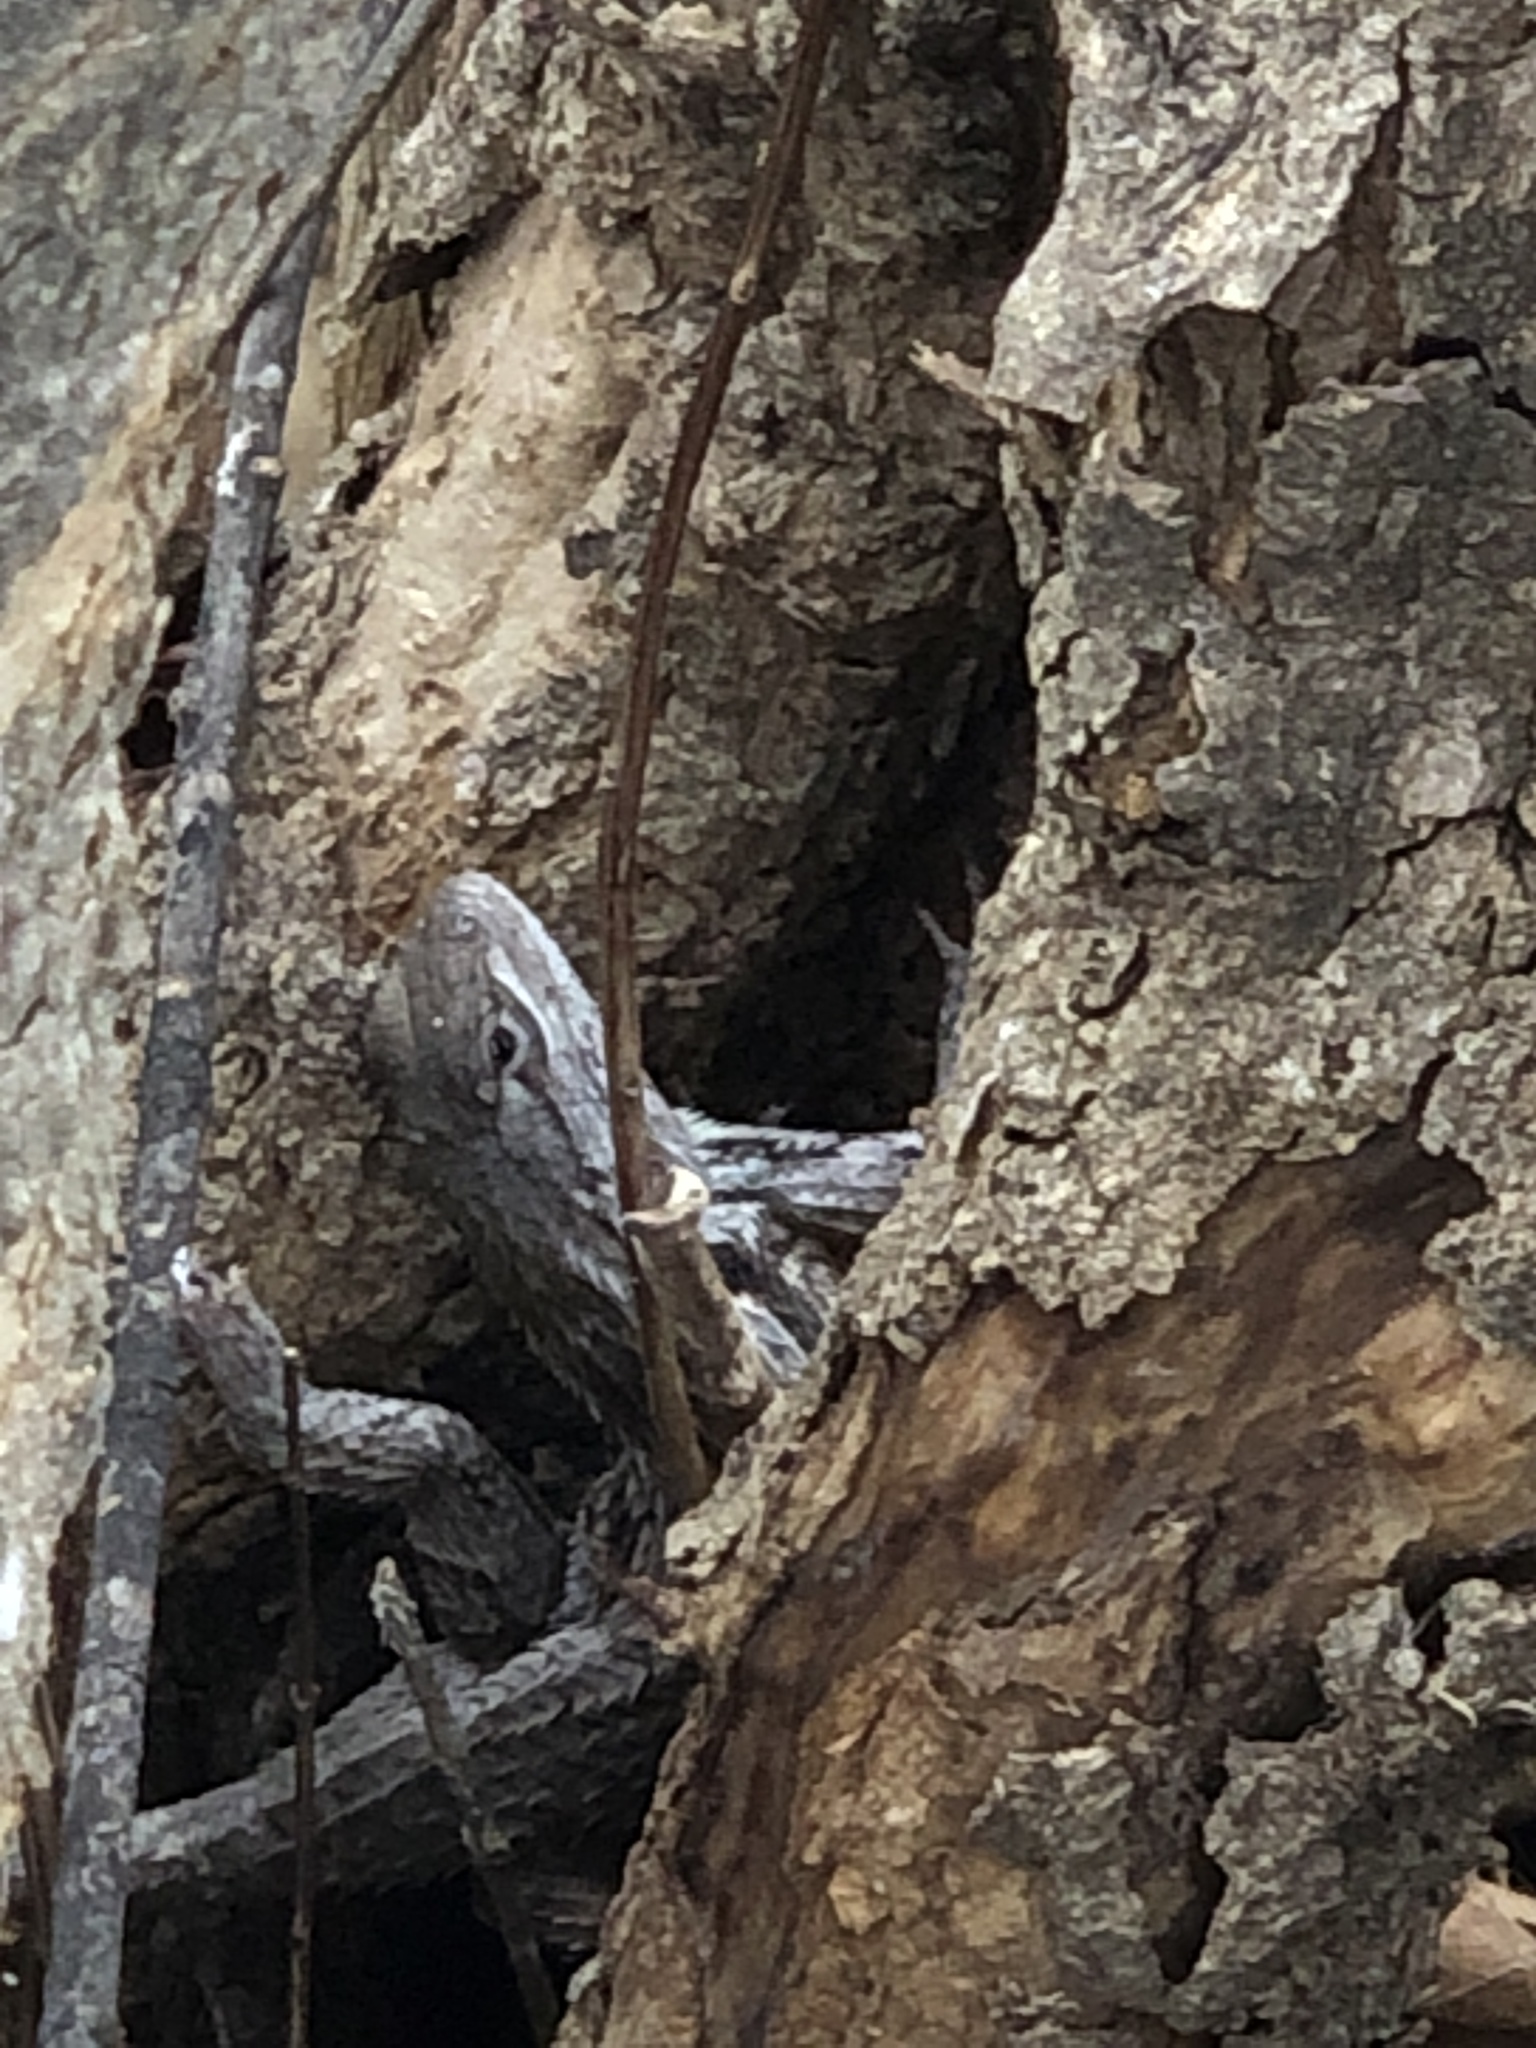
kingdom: Animalia
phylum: Chordata
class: Squamata
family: Phrynosomatidae
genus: Sceloporus
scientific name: Sceloporus olivaceus
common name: Texas spiny lizard
